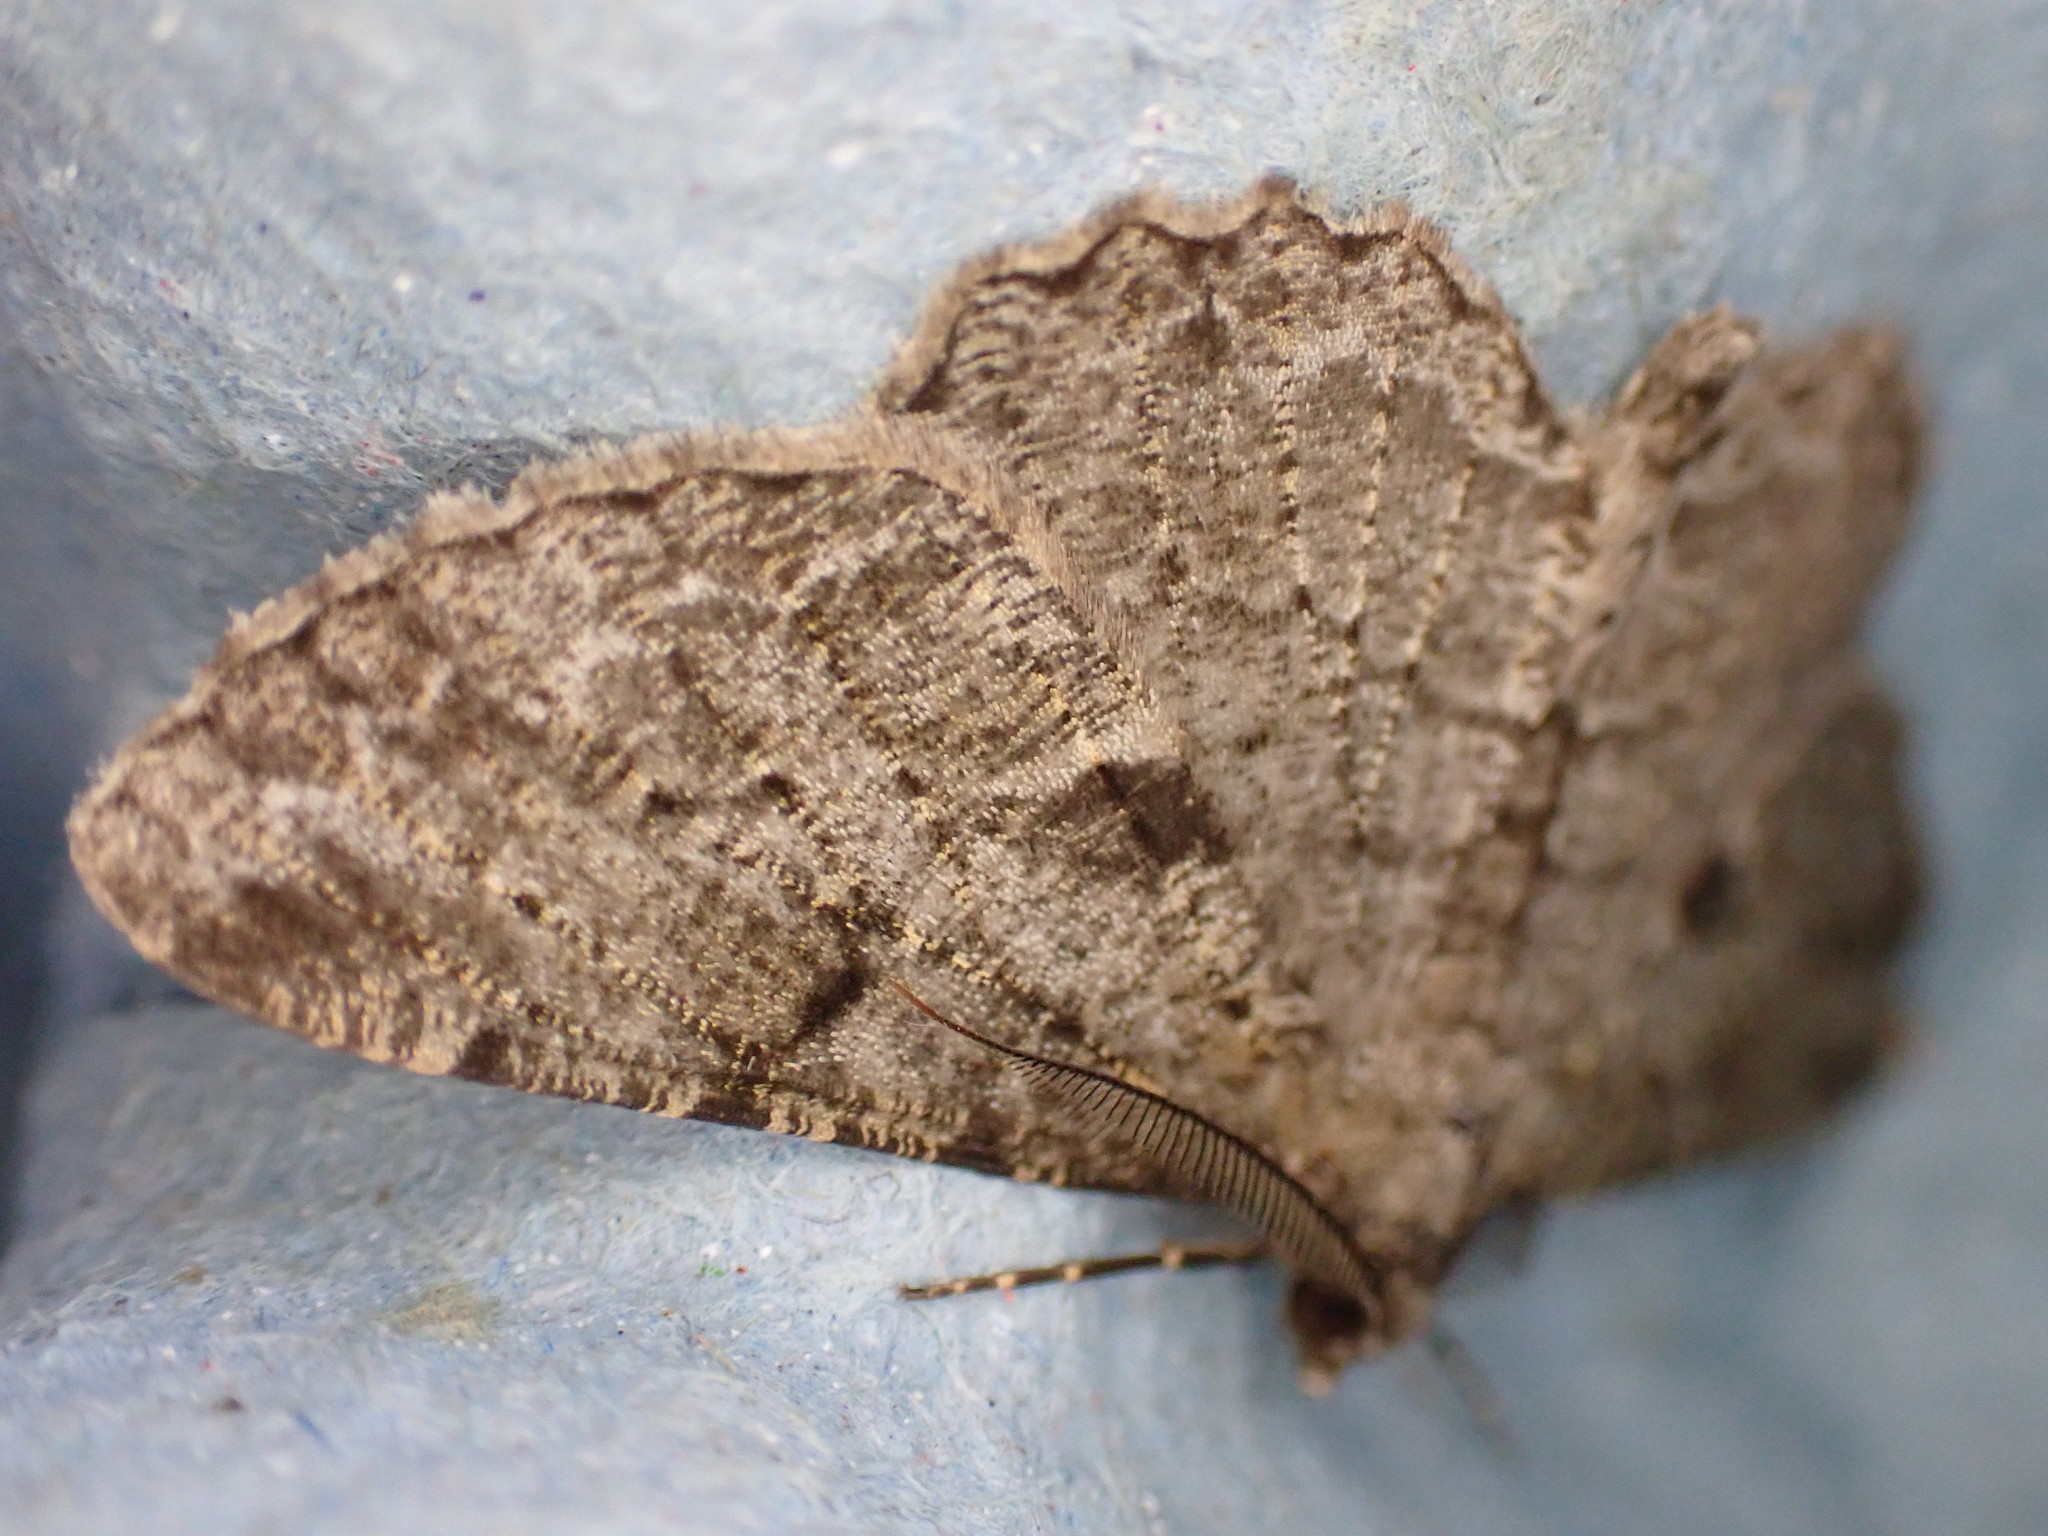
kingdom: Animalia
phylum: Arthropoda
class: Insecta
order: Lepidoptera
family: Geometridae
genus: Peribatodes
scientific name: Peribatodes rhomboidaria
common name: Willow beauty
